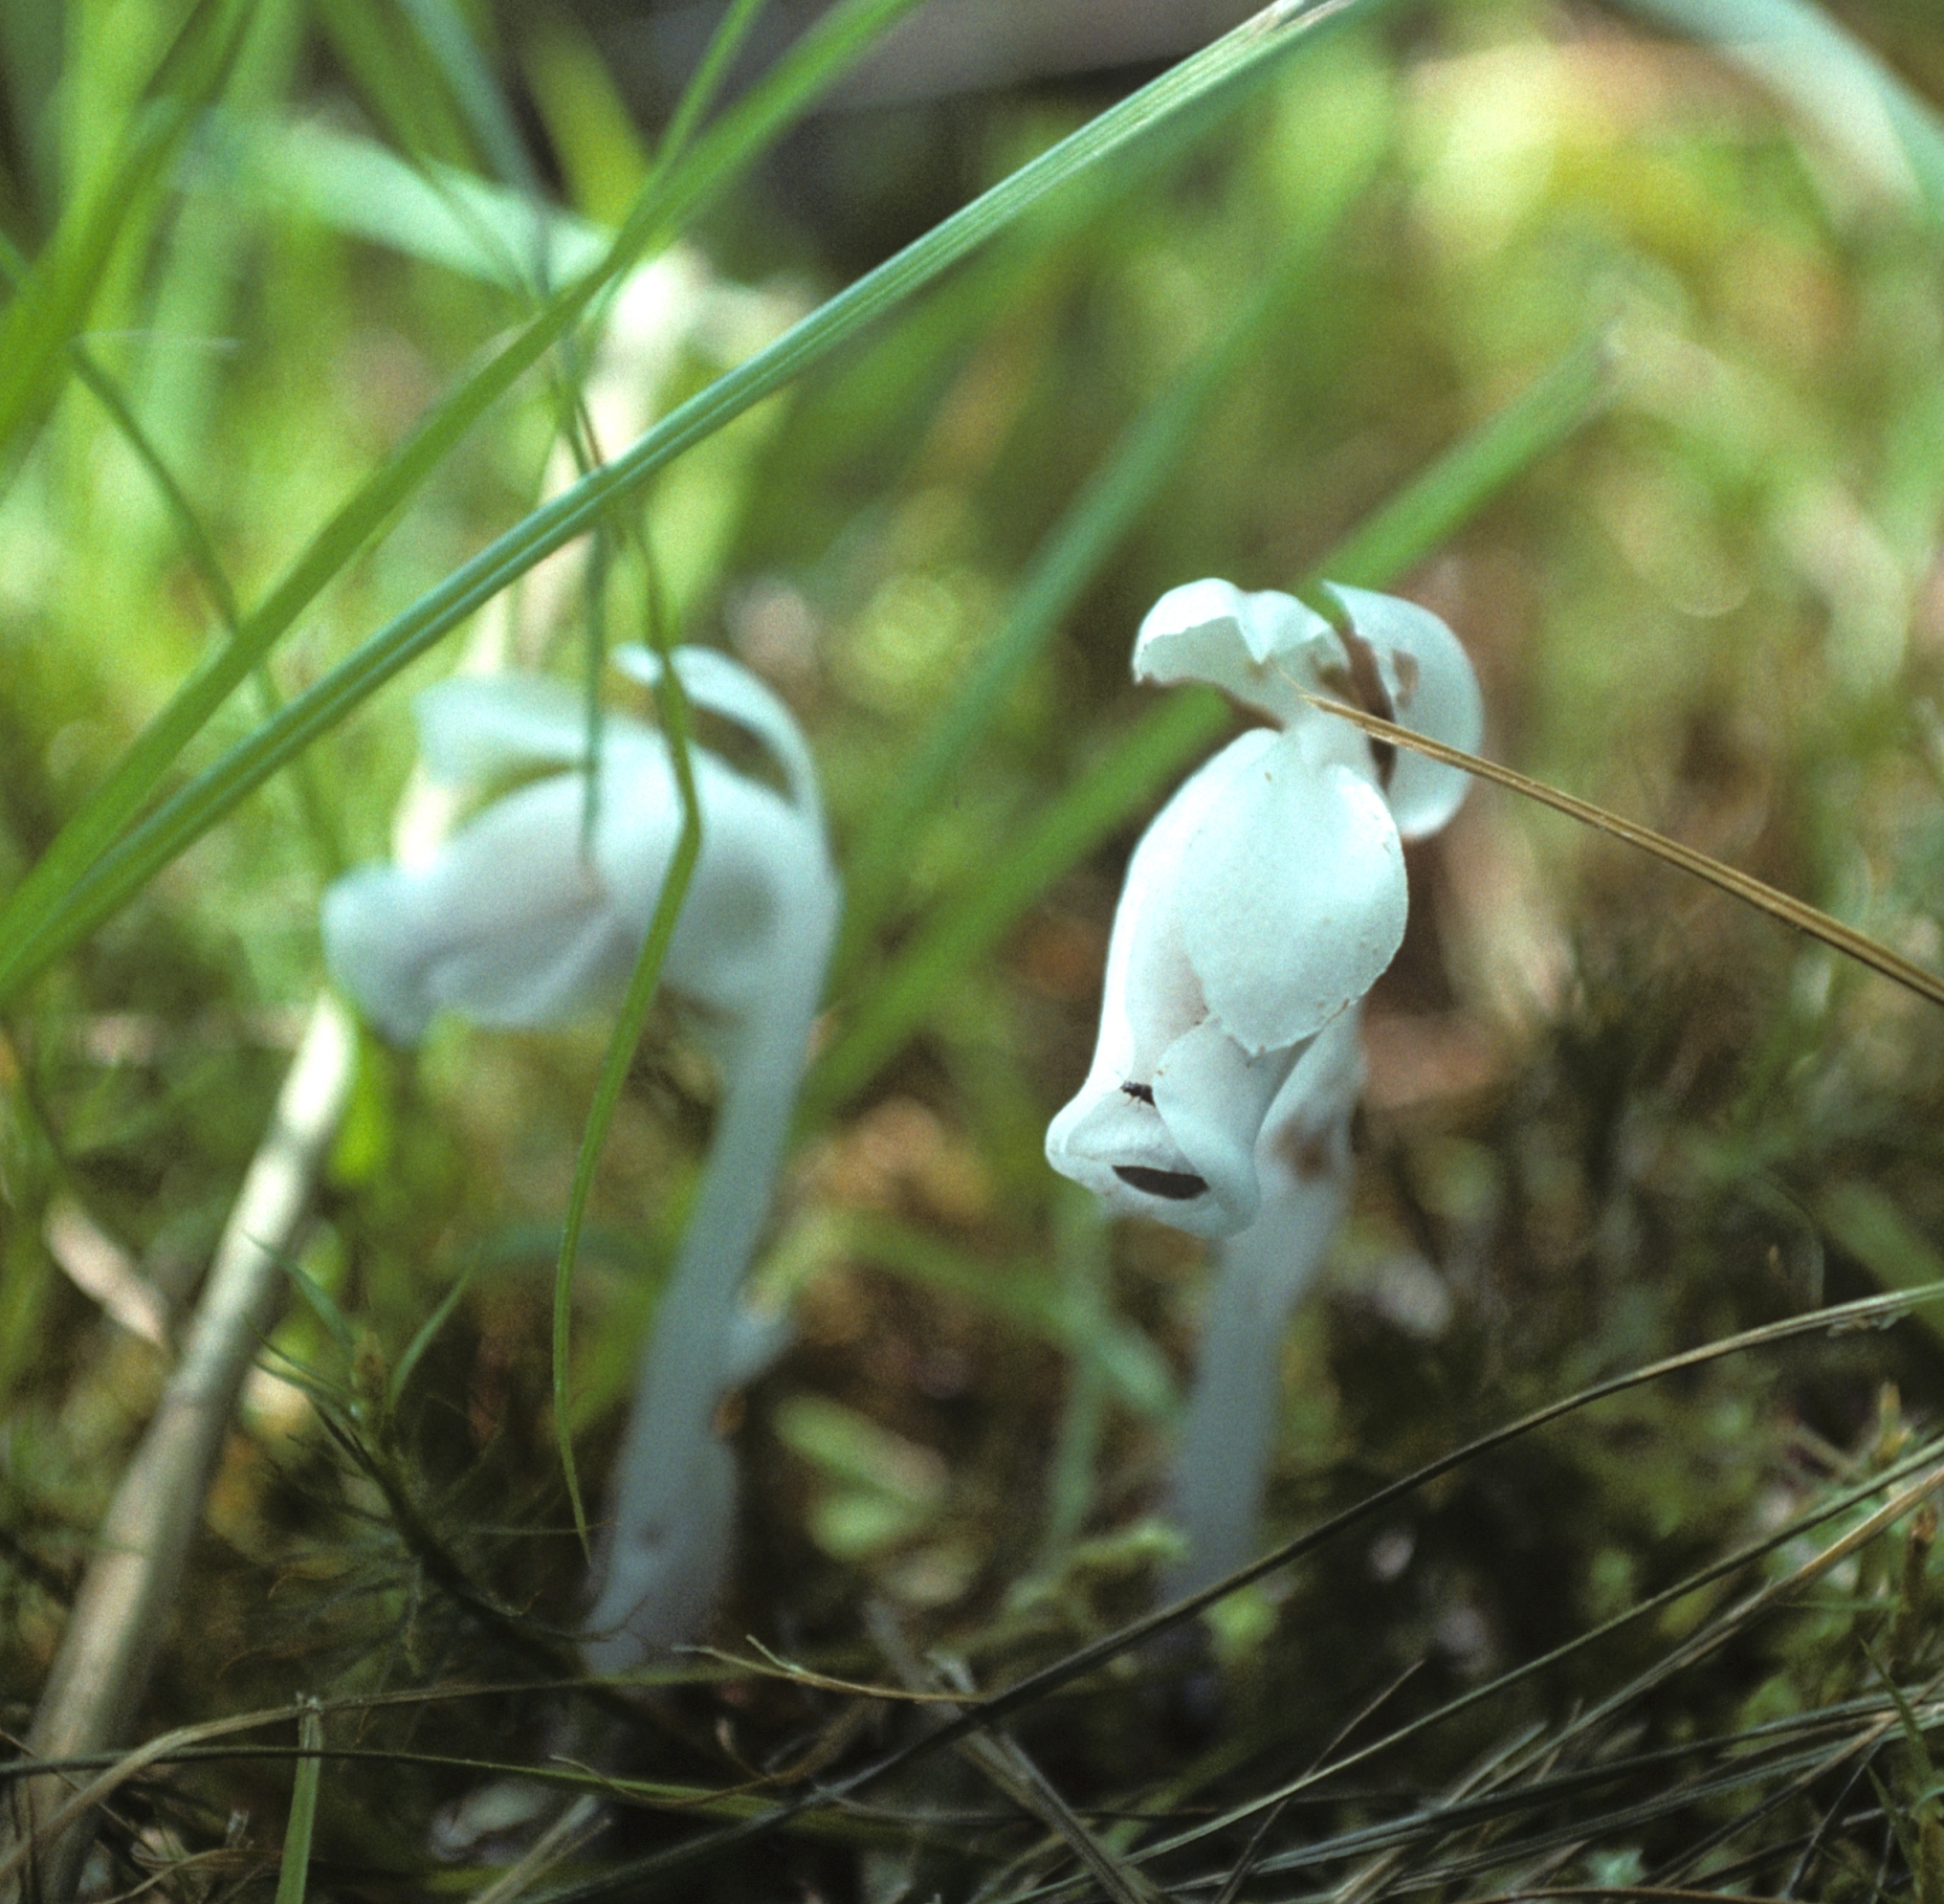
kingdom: Plantae
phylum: Tracheophyta
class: Magnoliopsida
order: Ericales
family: Ericaceae
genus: Monotropastrum
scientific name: Monotropastrum humile
